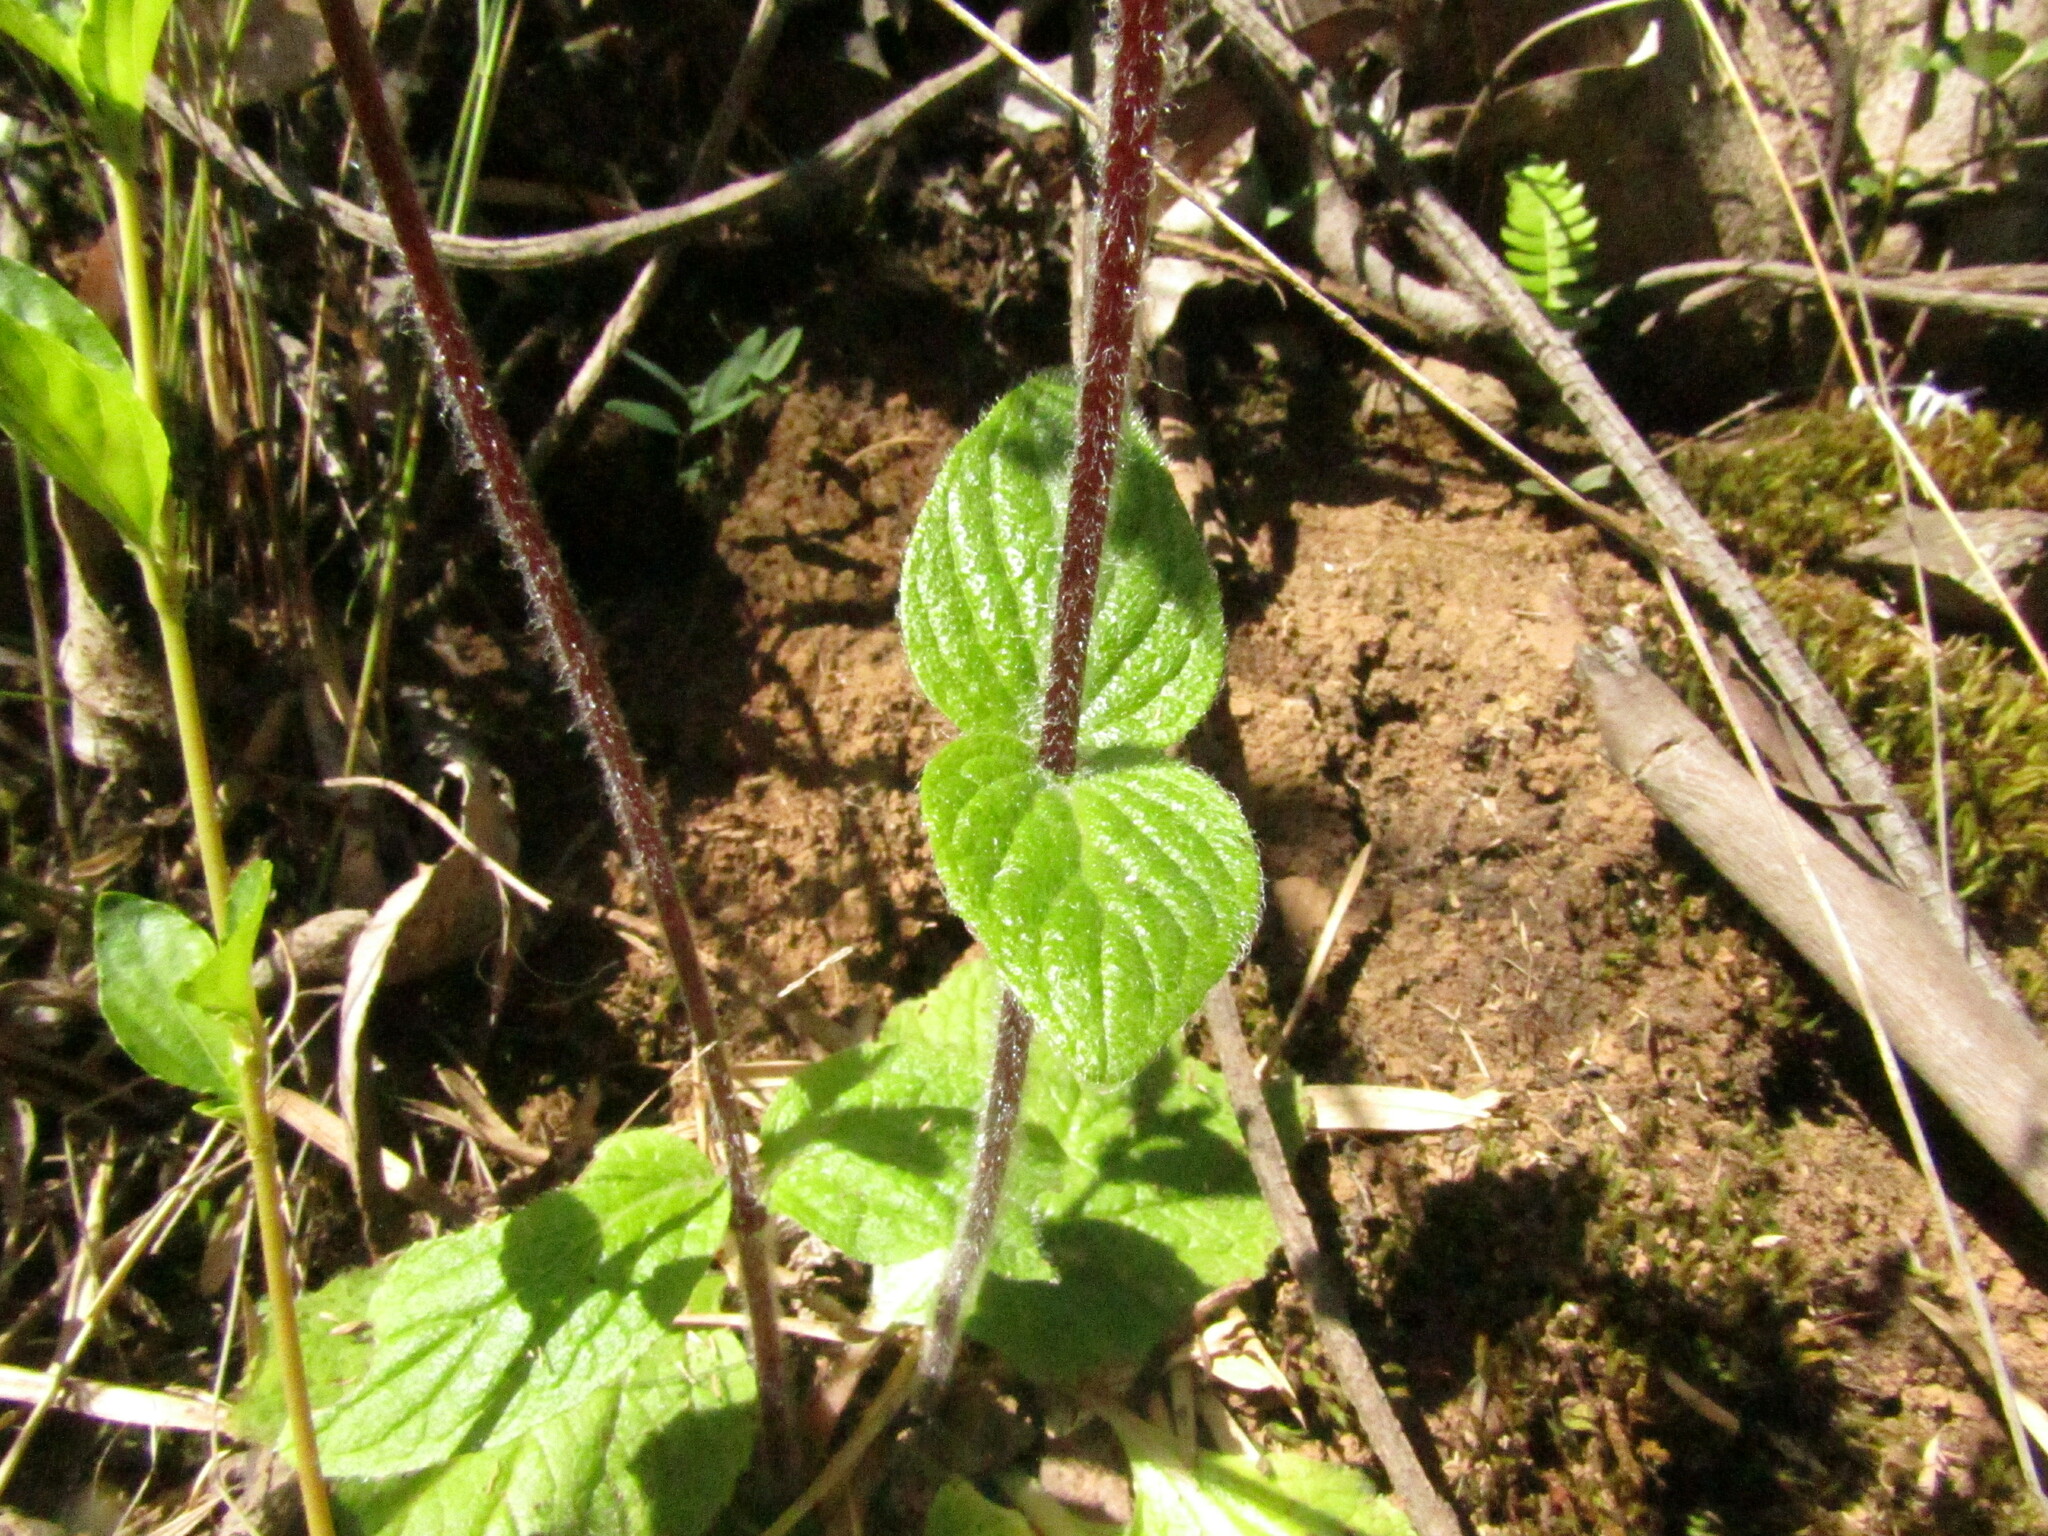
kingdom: Plantae
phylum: Tracheophyta
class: Magnoliopsida
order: Lamiales
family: Calceolariaceae
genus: Calceolaria
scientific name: Calceolaria corymbosa
